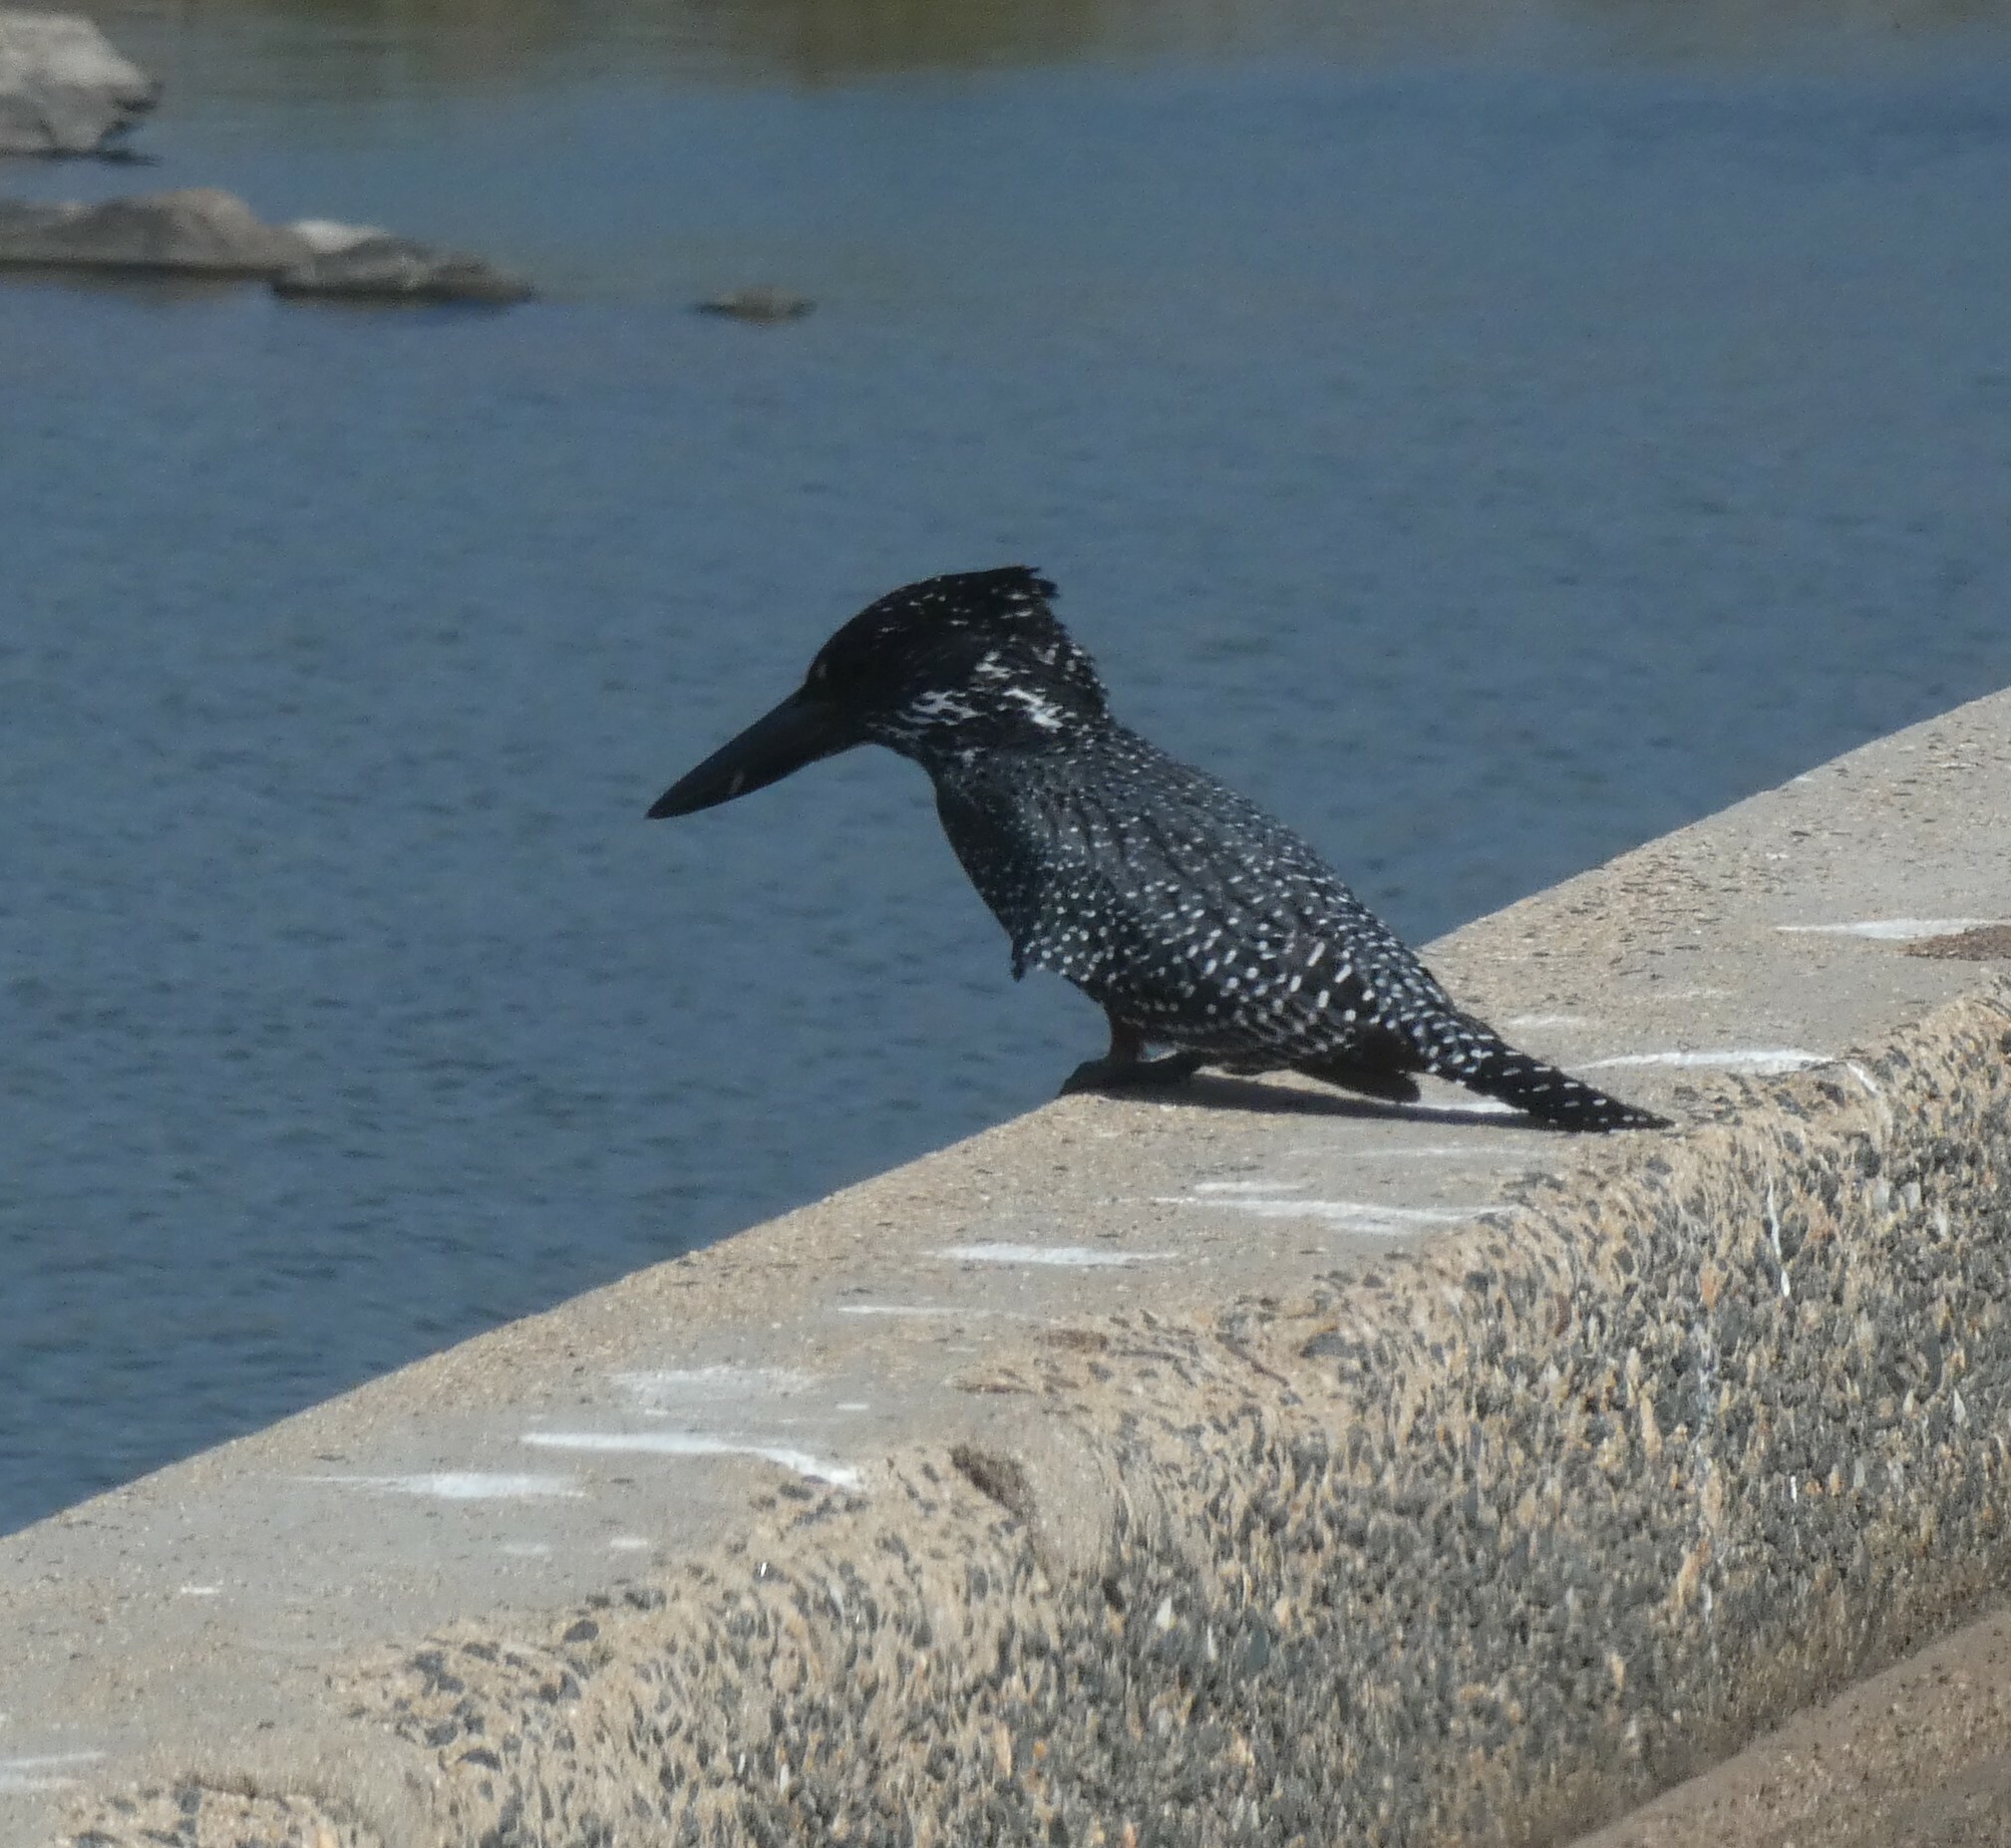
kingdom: Animalia
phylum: Chordata
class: Aves
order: Coraciiformes
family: Alcedinidae
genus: Megaceryle
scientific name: Megaceryle maxima
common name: Giant kingfisher
